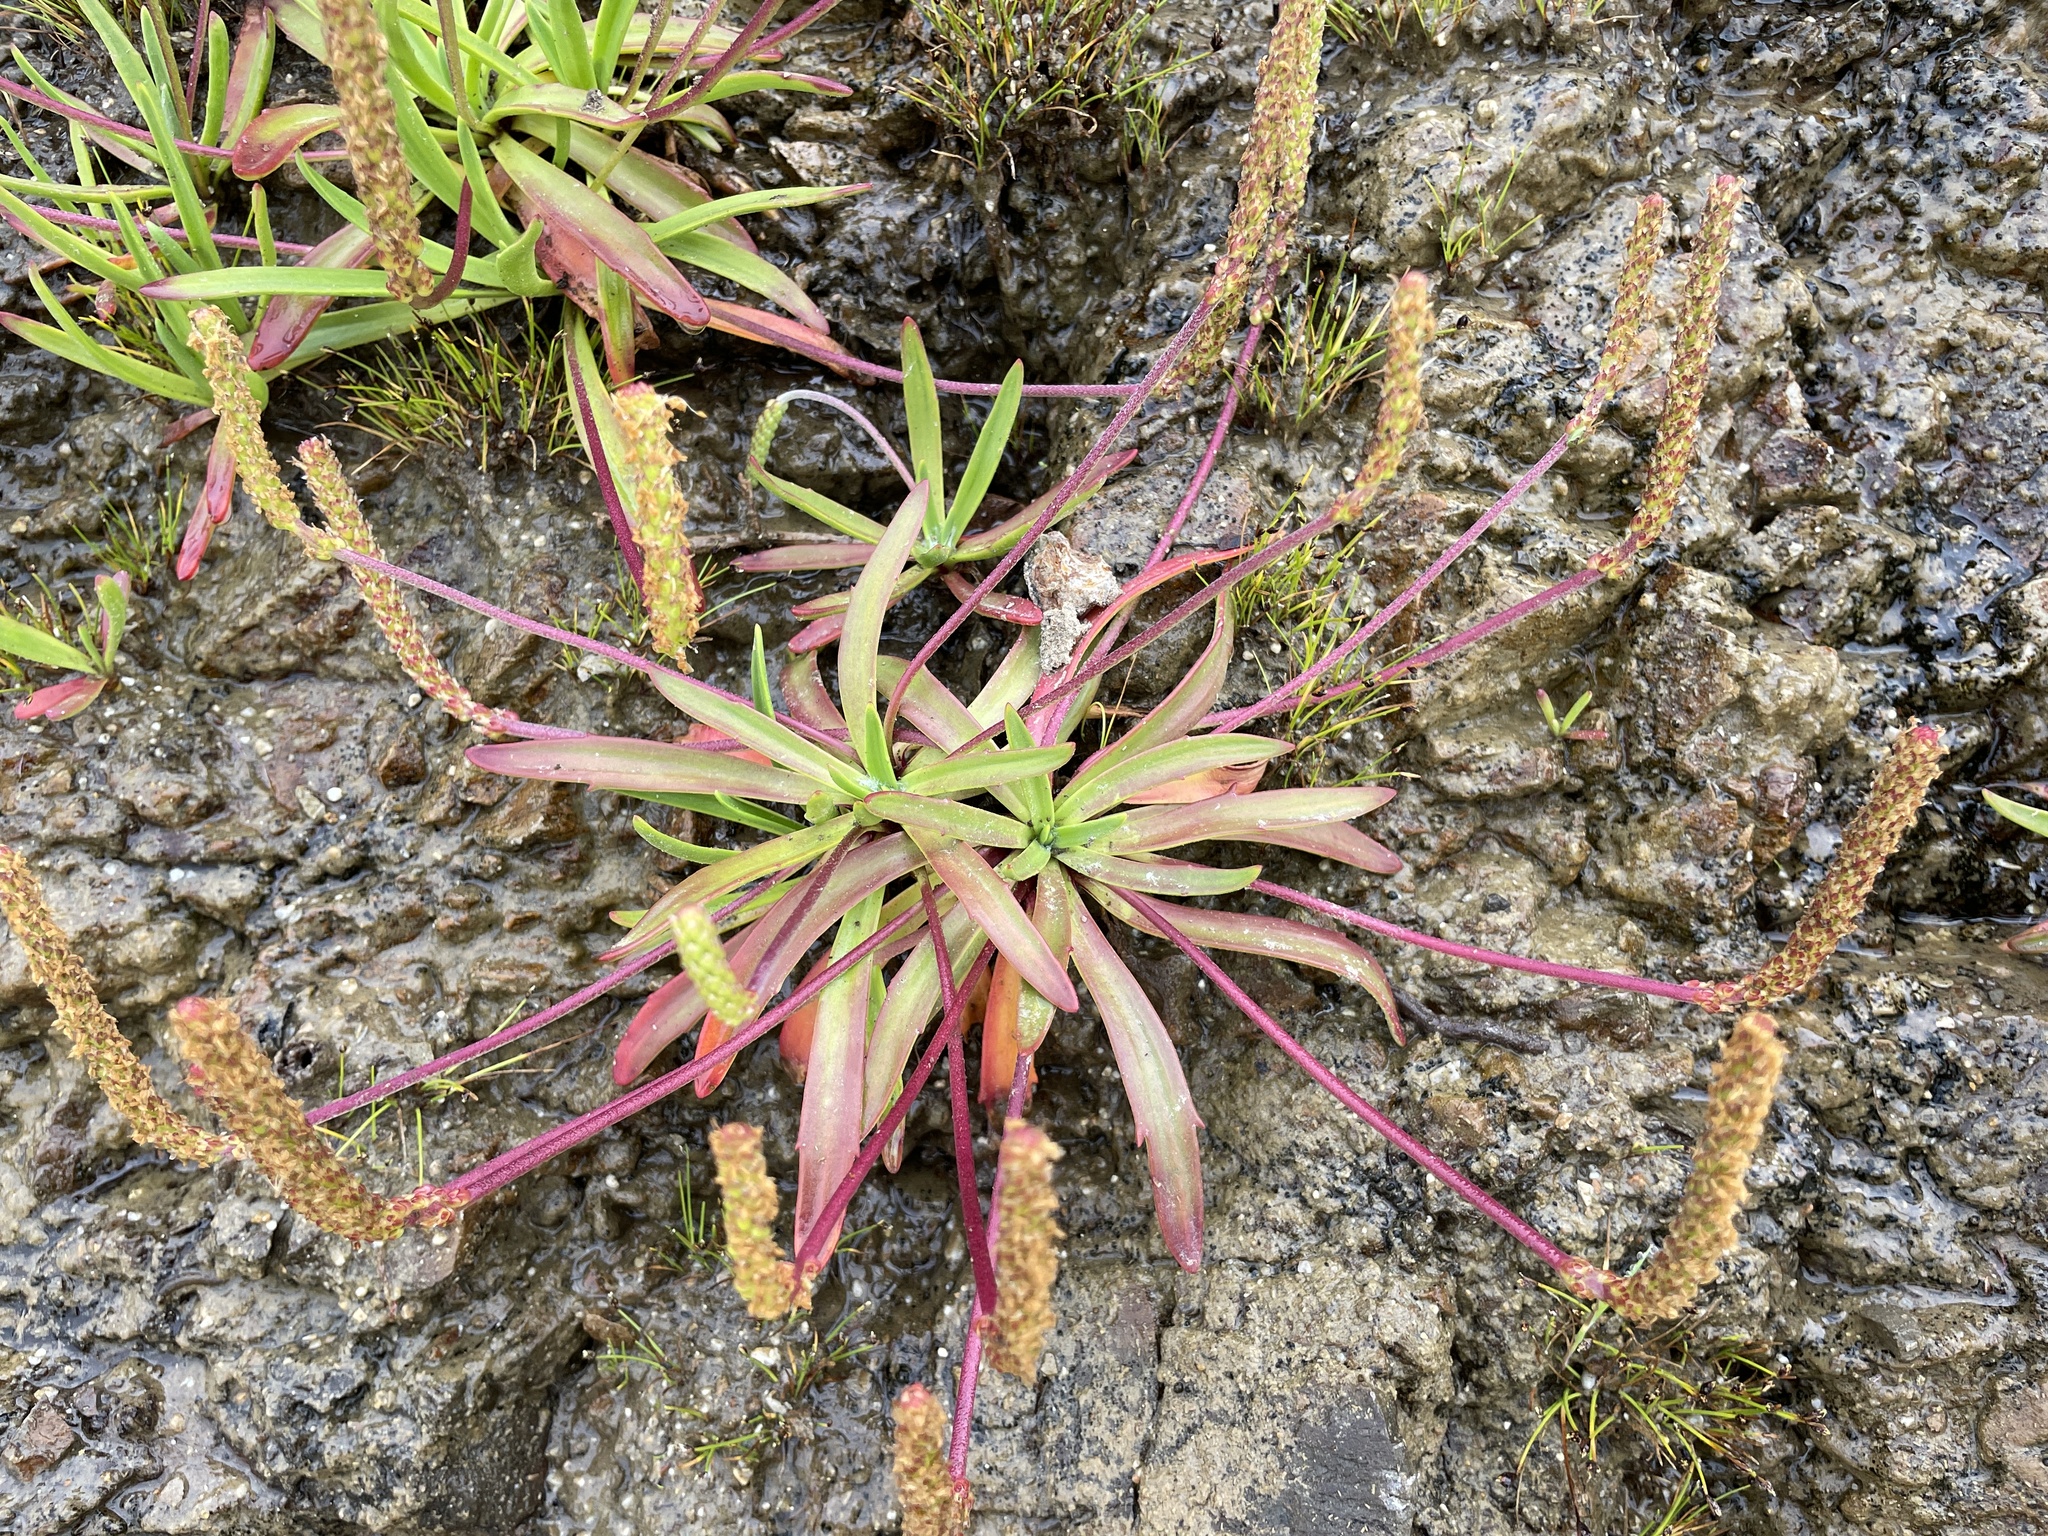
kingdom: Plantae
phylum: Tracheophyta
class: Magnoliopsida
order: Lamiales
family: Plantaginaceae
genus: Plantago
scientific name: Plantago maritima
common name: Sea plantain
